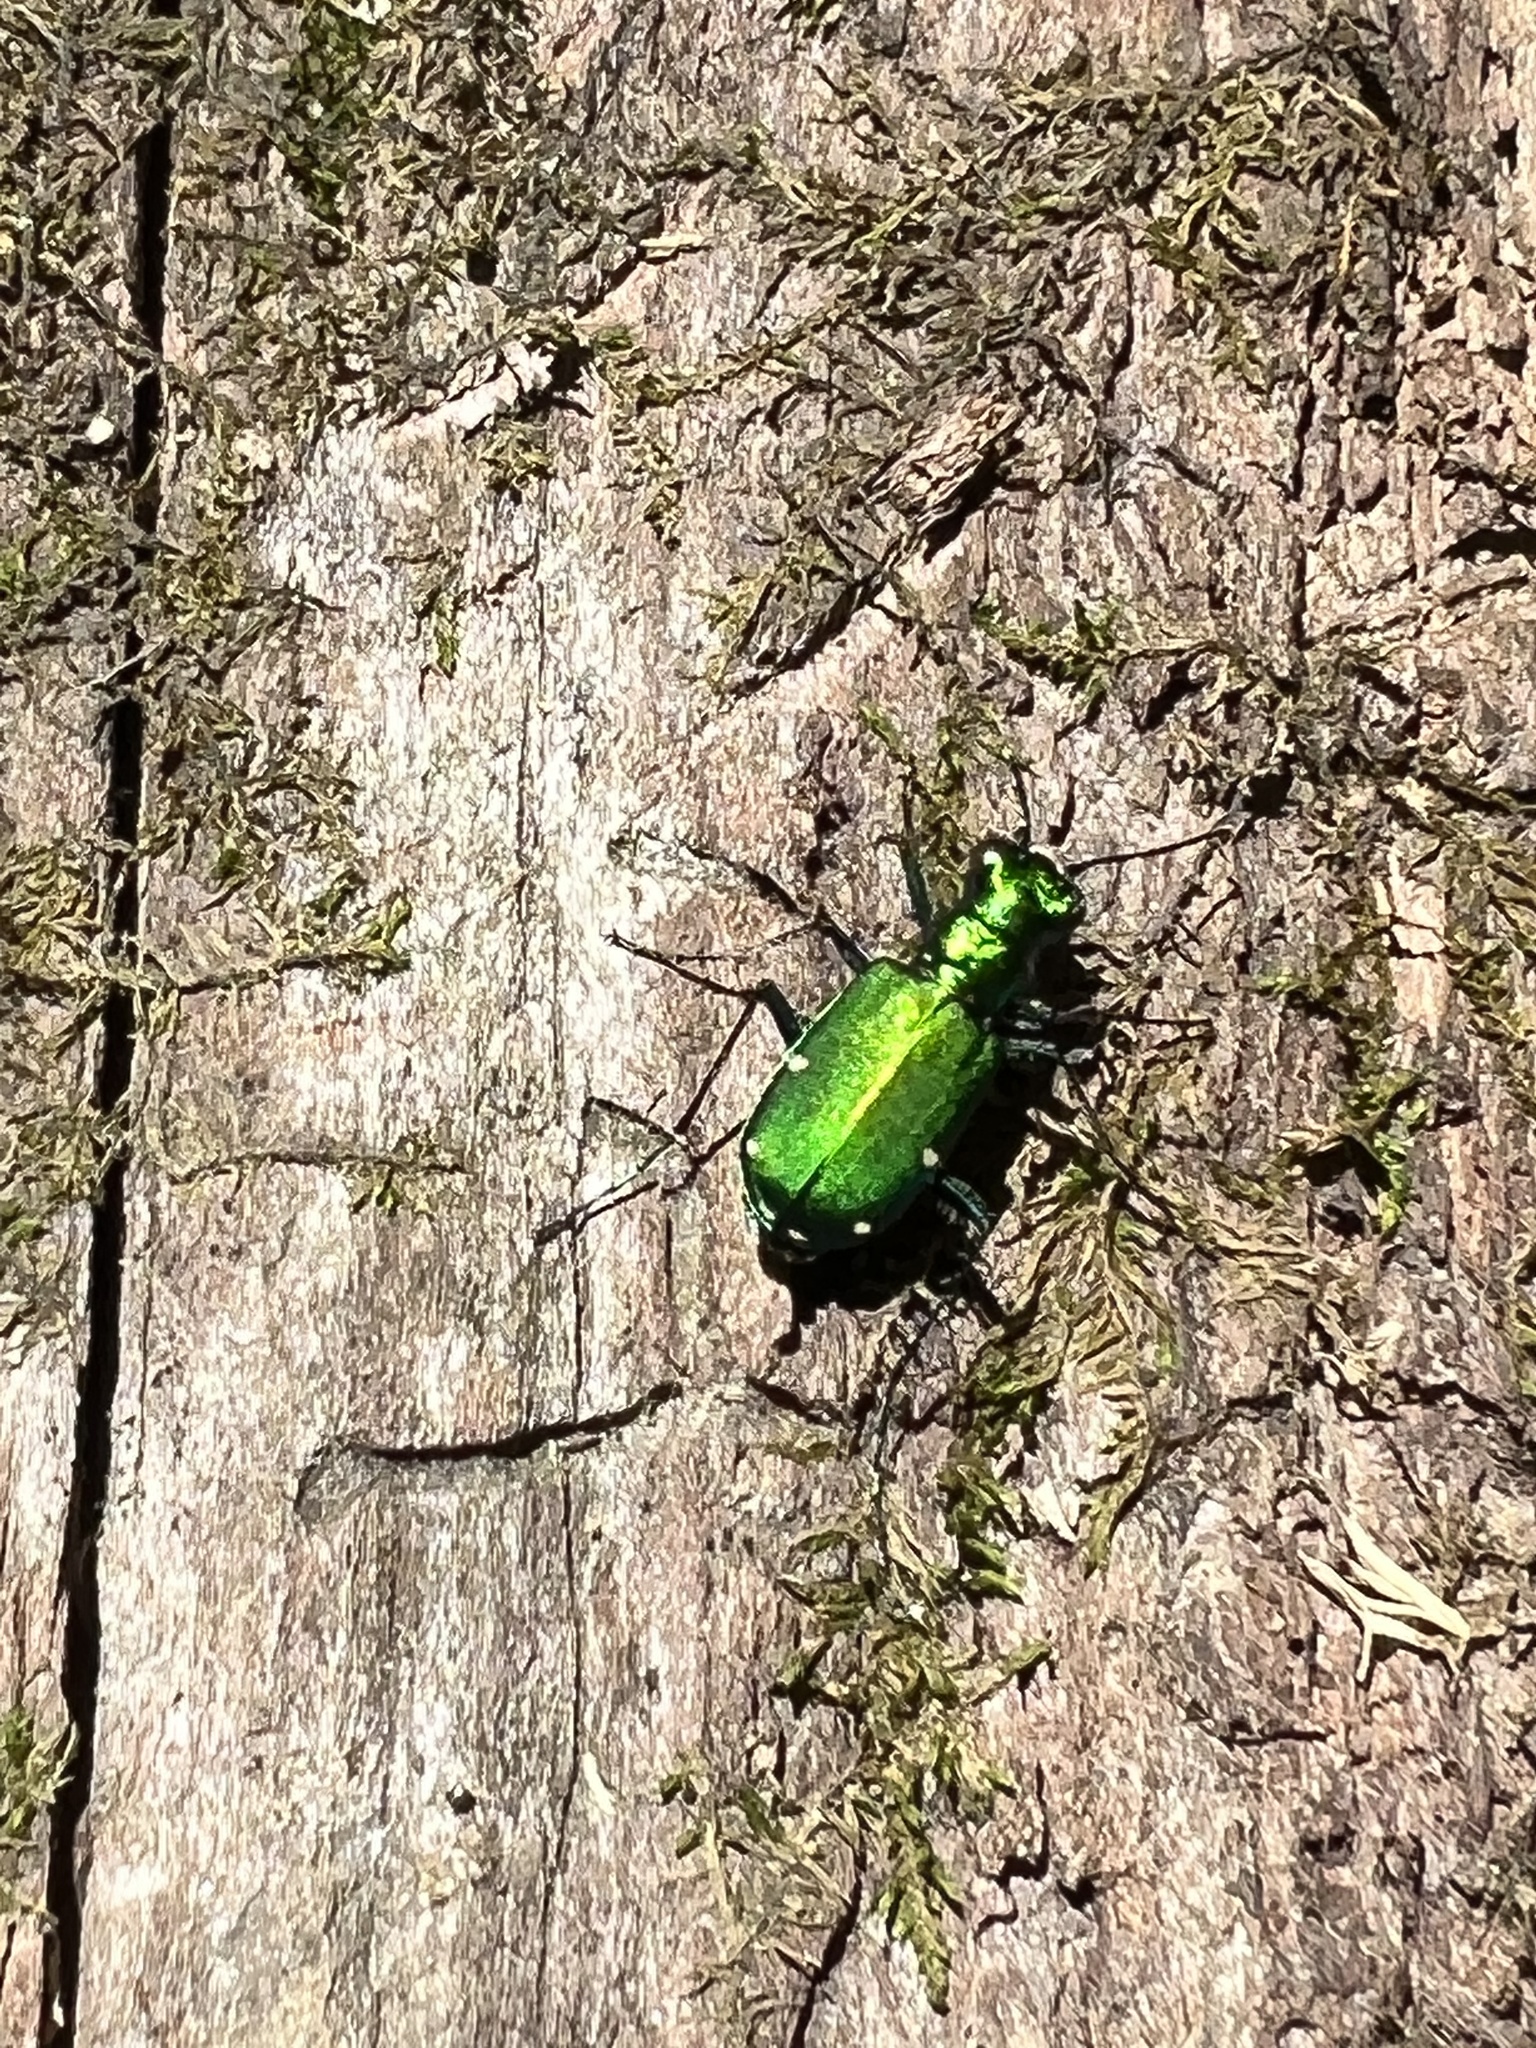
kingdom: Animalia
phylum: Arthropoda
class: Insecta
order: Coleoptera
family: Carabidae
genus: Cicindela
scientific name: Cicindela sexguttata
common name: Six-spotted tiger beetle
